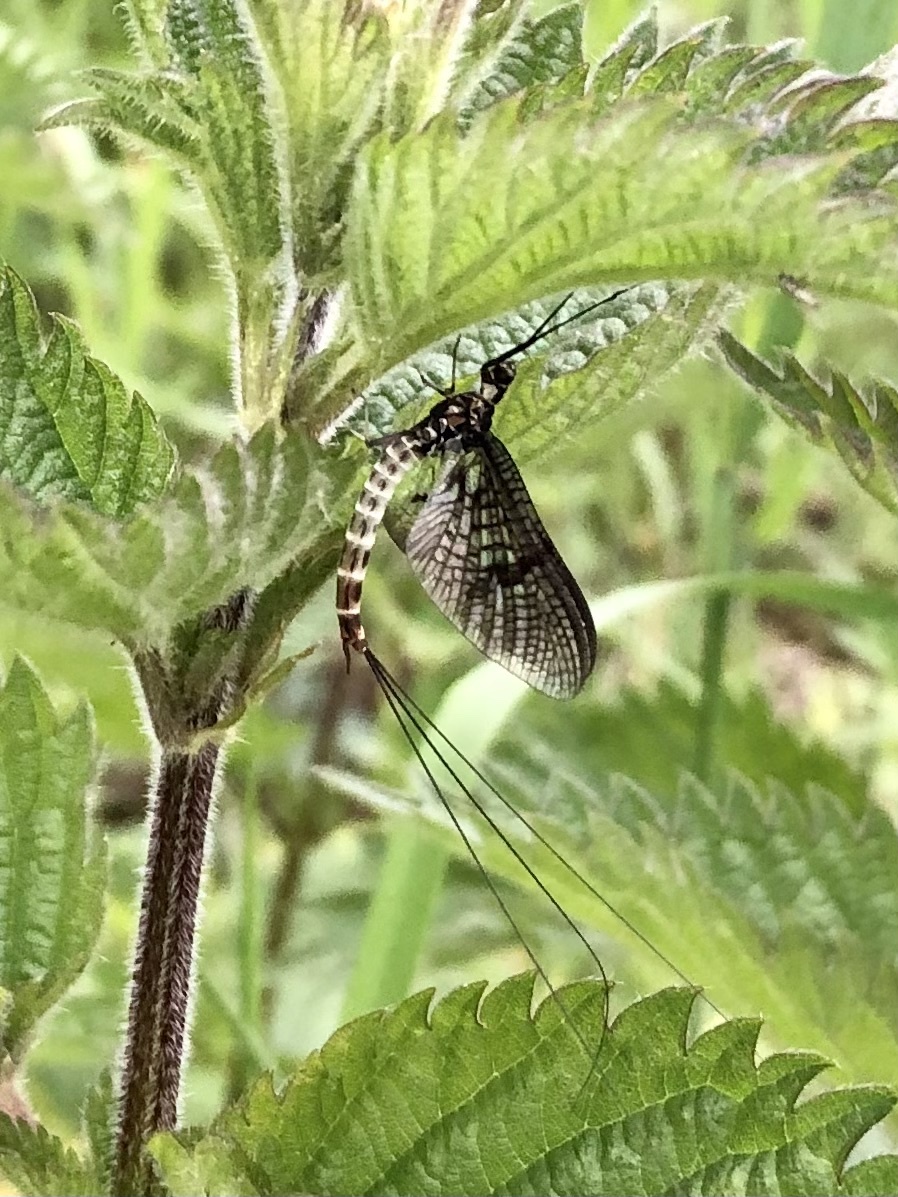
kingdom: Animalia
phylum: Arthropoda
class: Insecta
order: Ephemeroptera
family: Ephemeridae
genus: Ephemera
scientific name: Ephemera danica
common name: Green dun
